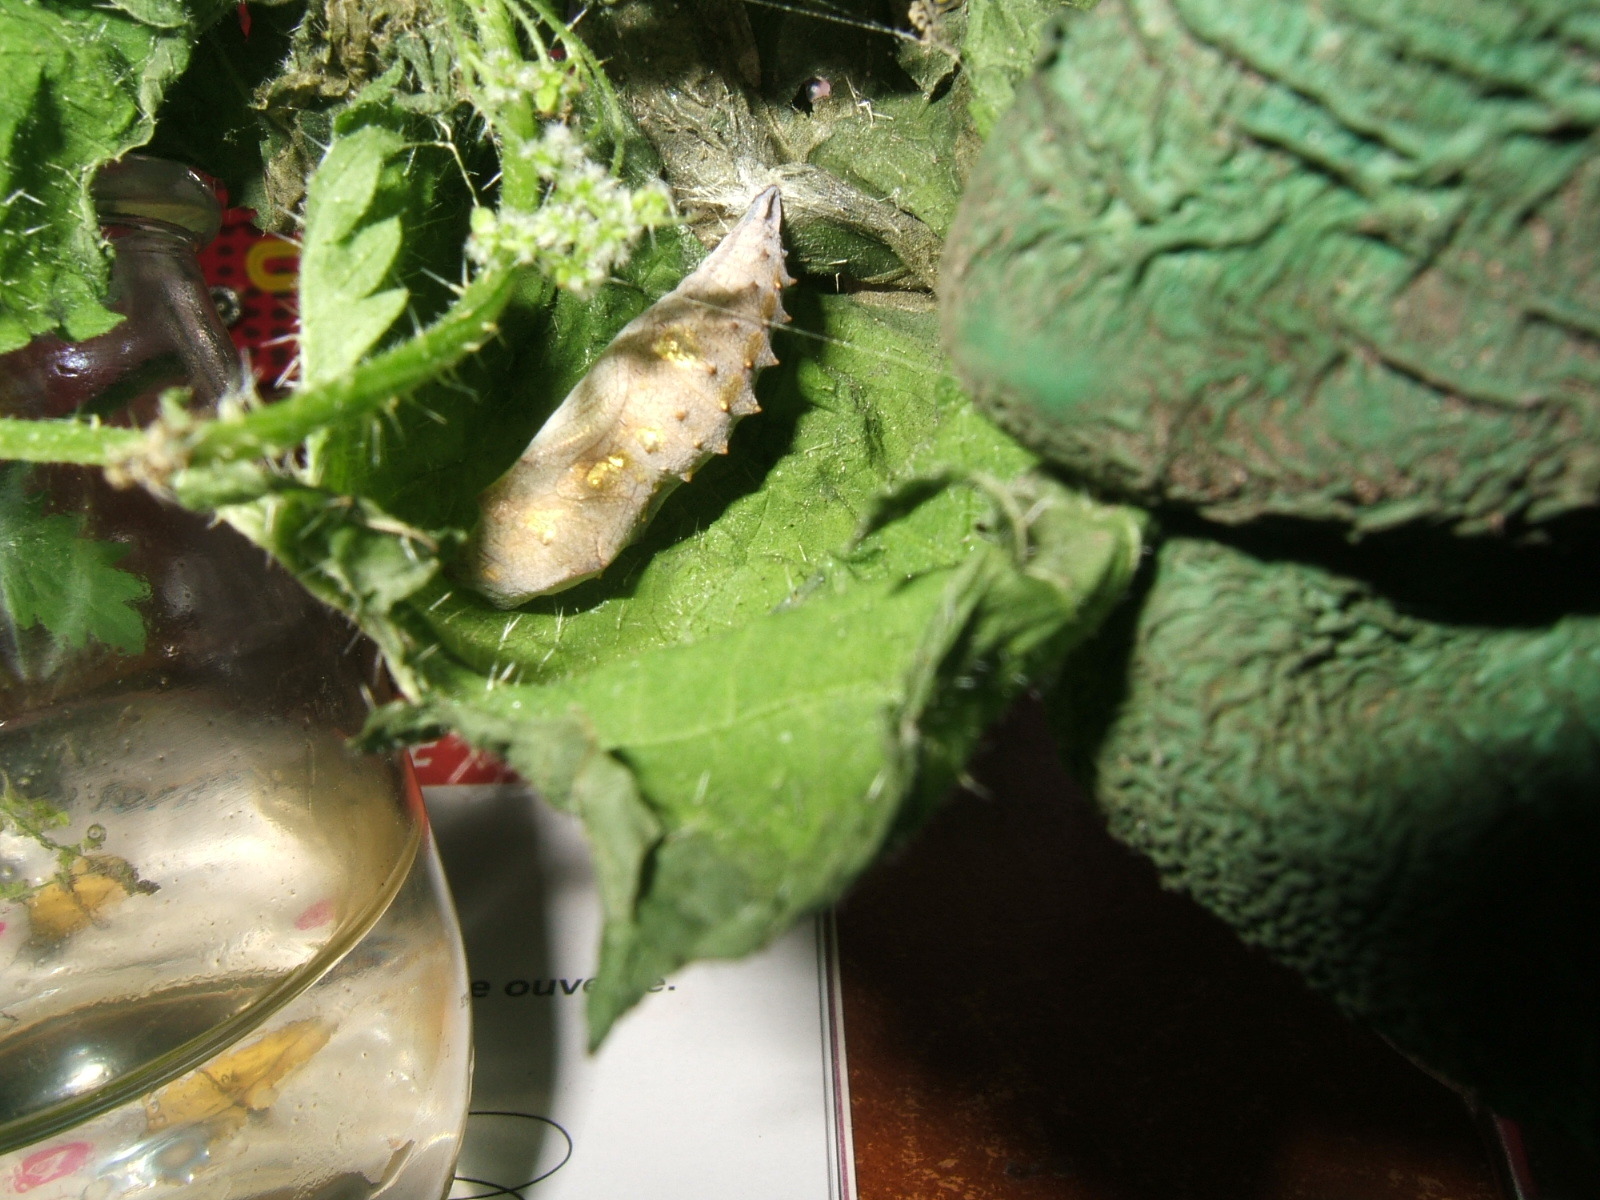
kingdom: Animalia
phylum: Arthropoda
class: Insecta
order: Lepidoptera
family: Nymphalidae
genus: Vanessa
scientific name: Vanessa atalanta
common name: Red admiral
